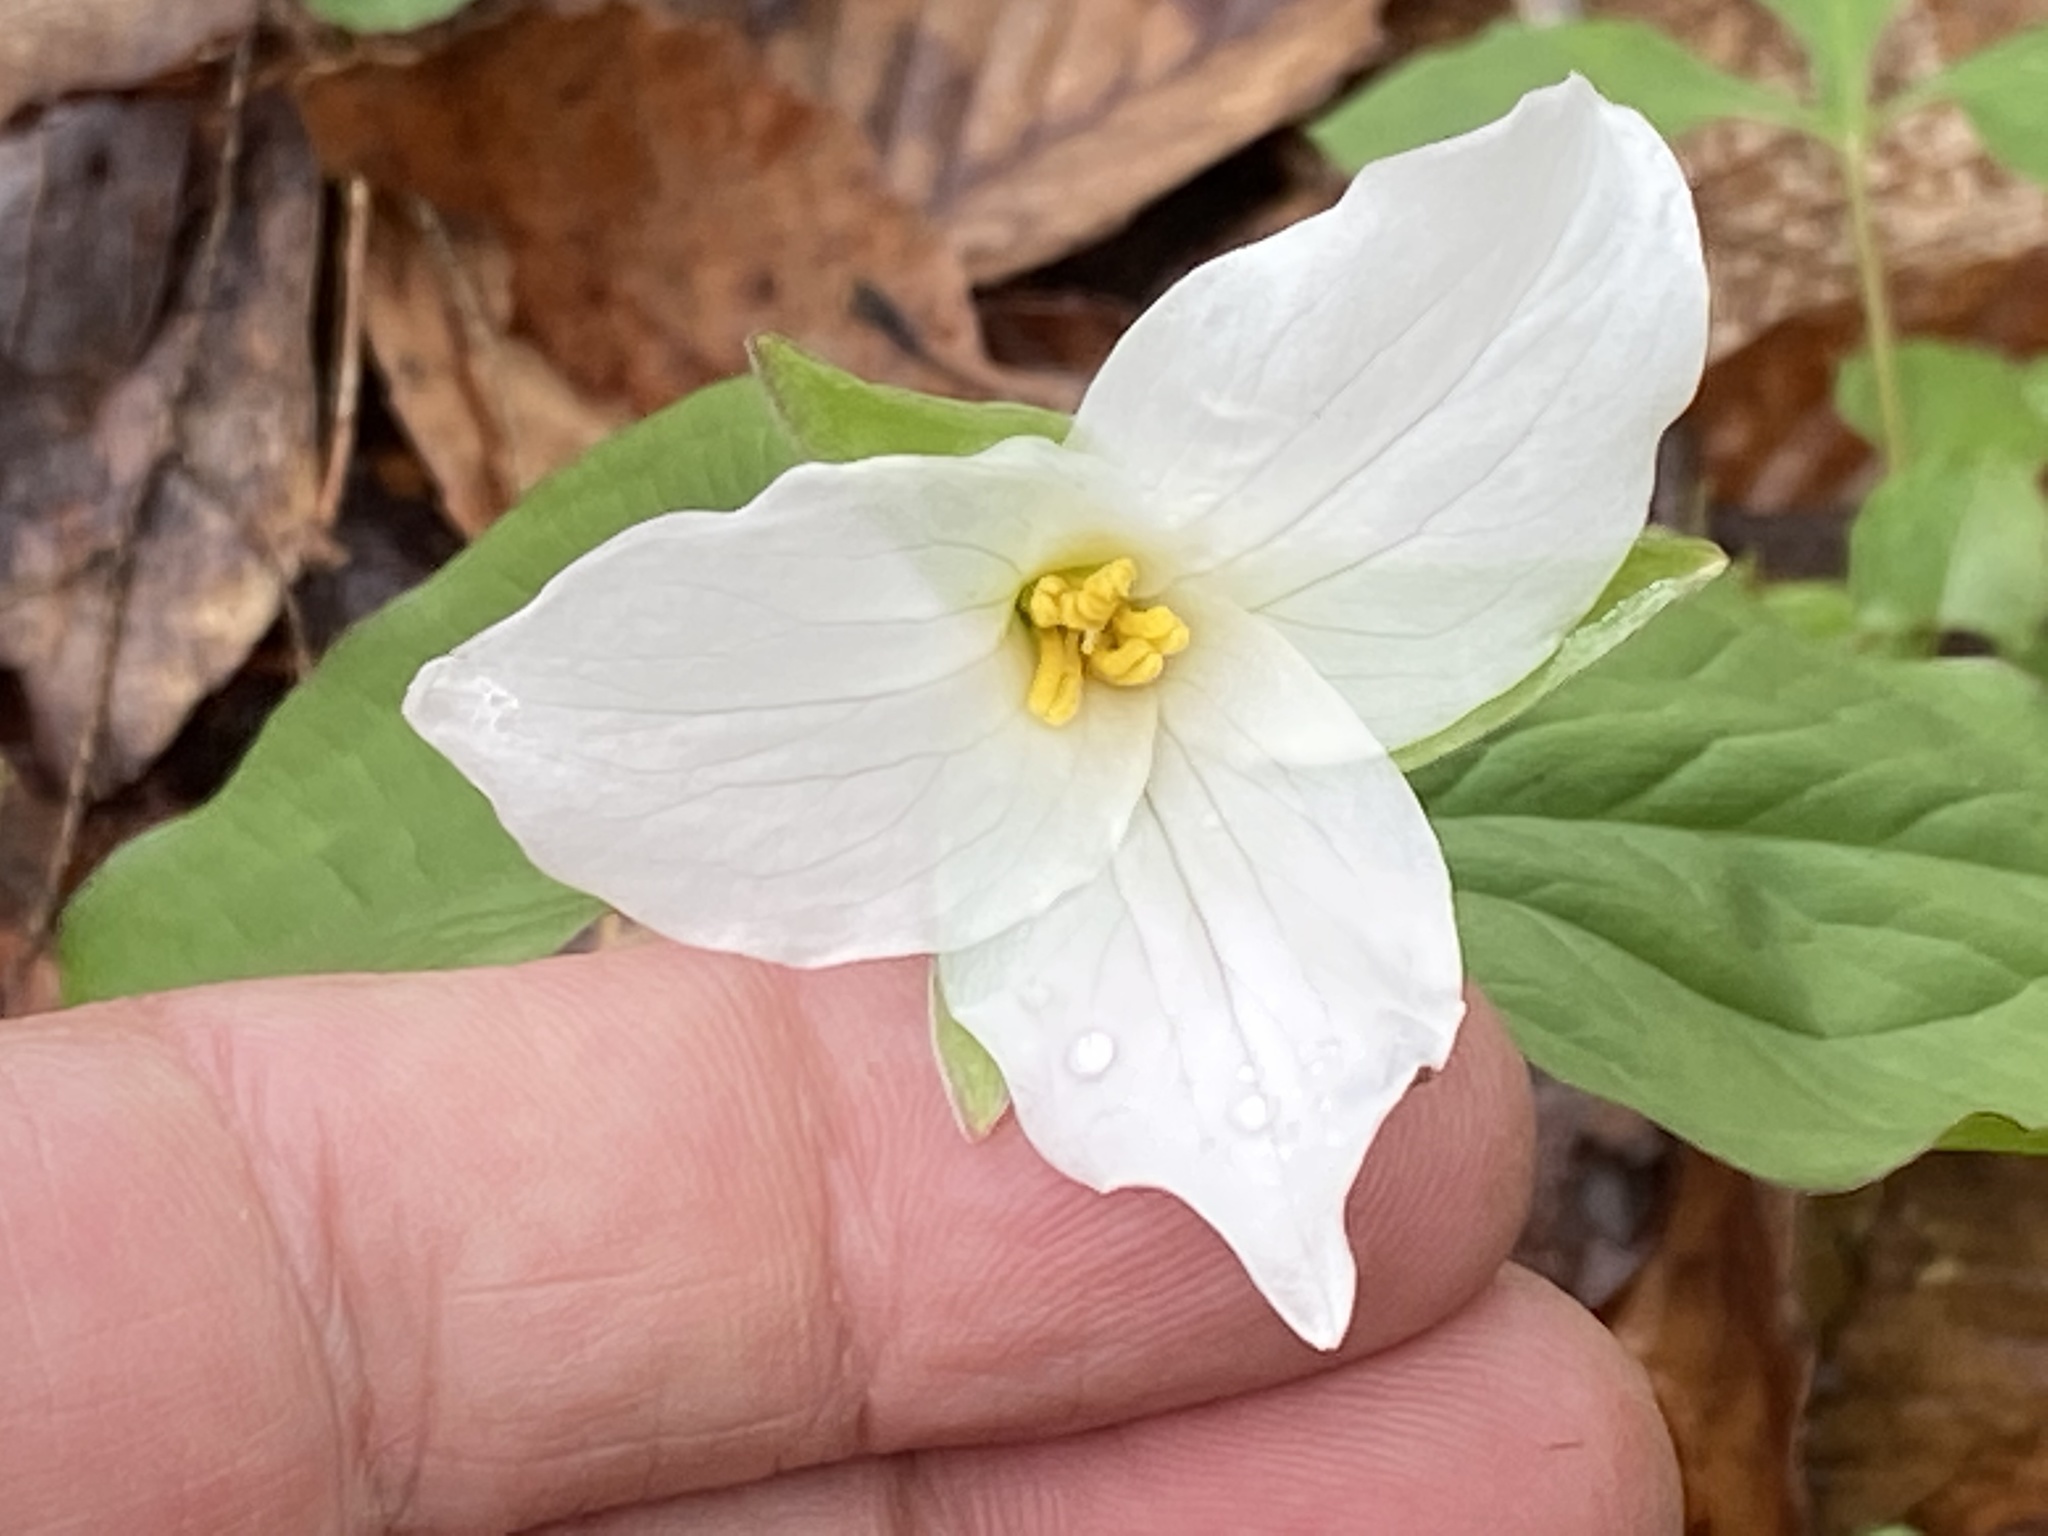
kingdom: Plantae
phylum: Tracheophyta
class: Liliopsida
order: Liliales
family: Melanthiaceae
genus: Trillium
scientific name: Trillium grandiflorum
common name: Great white trillium
